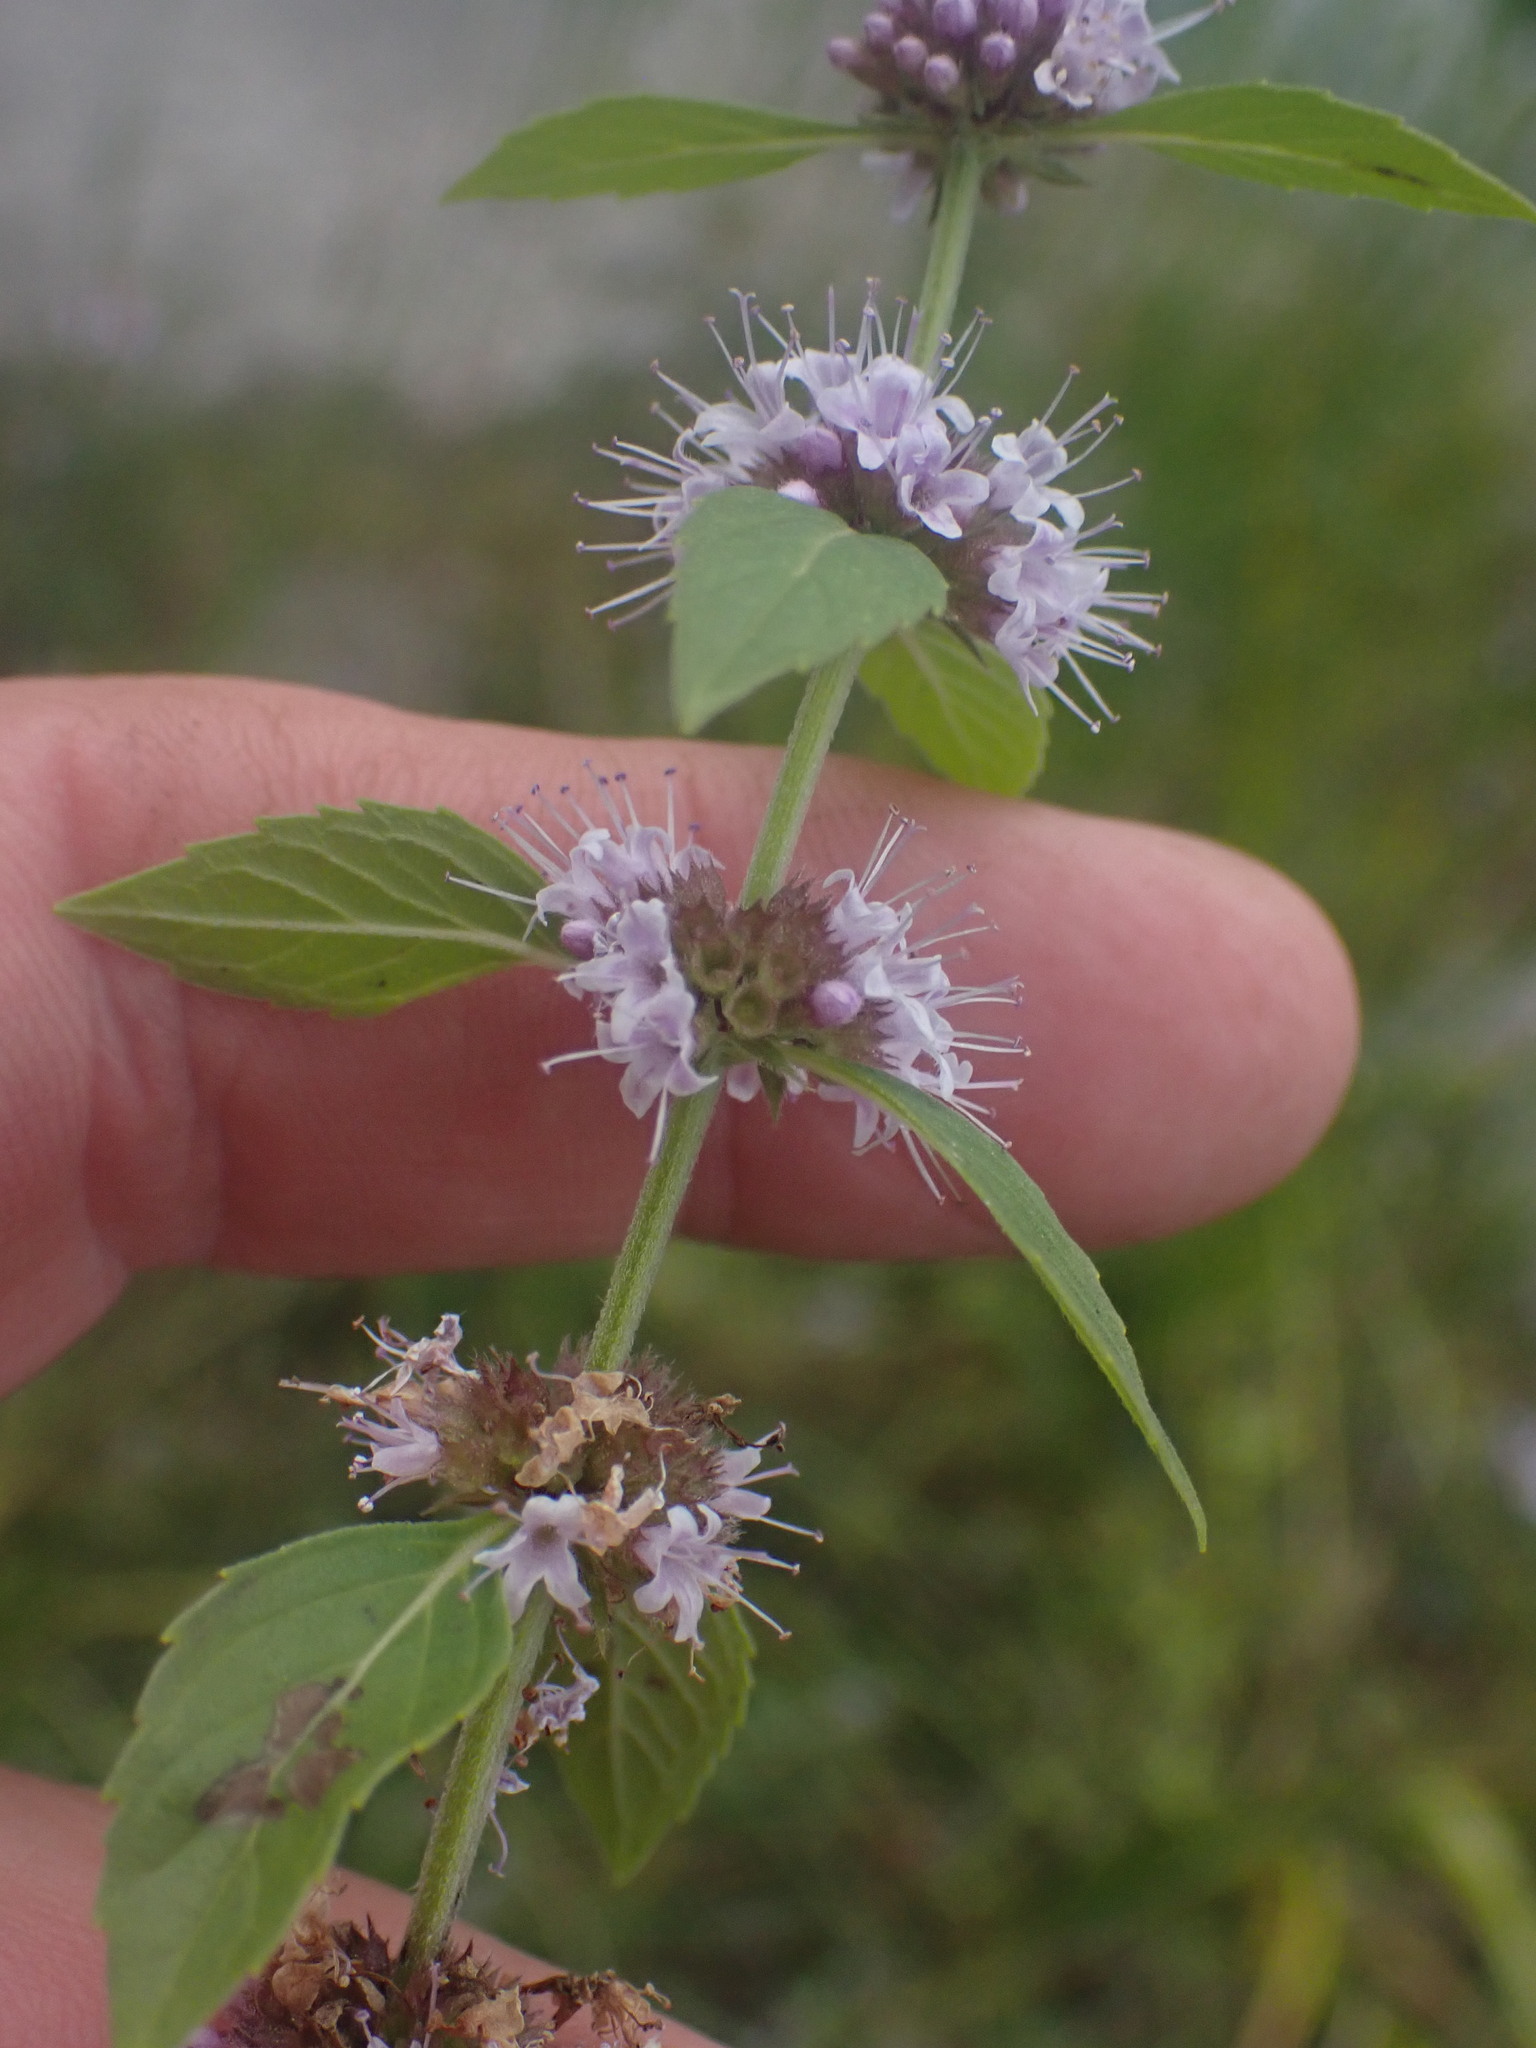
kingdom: Plantae
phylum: Tracheophyta
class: Magnoliopsida
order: Lamiales
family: Lamiaceae
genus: Mentha
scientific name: Mentha canadensis
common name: American corn mint
